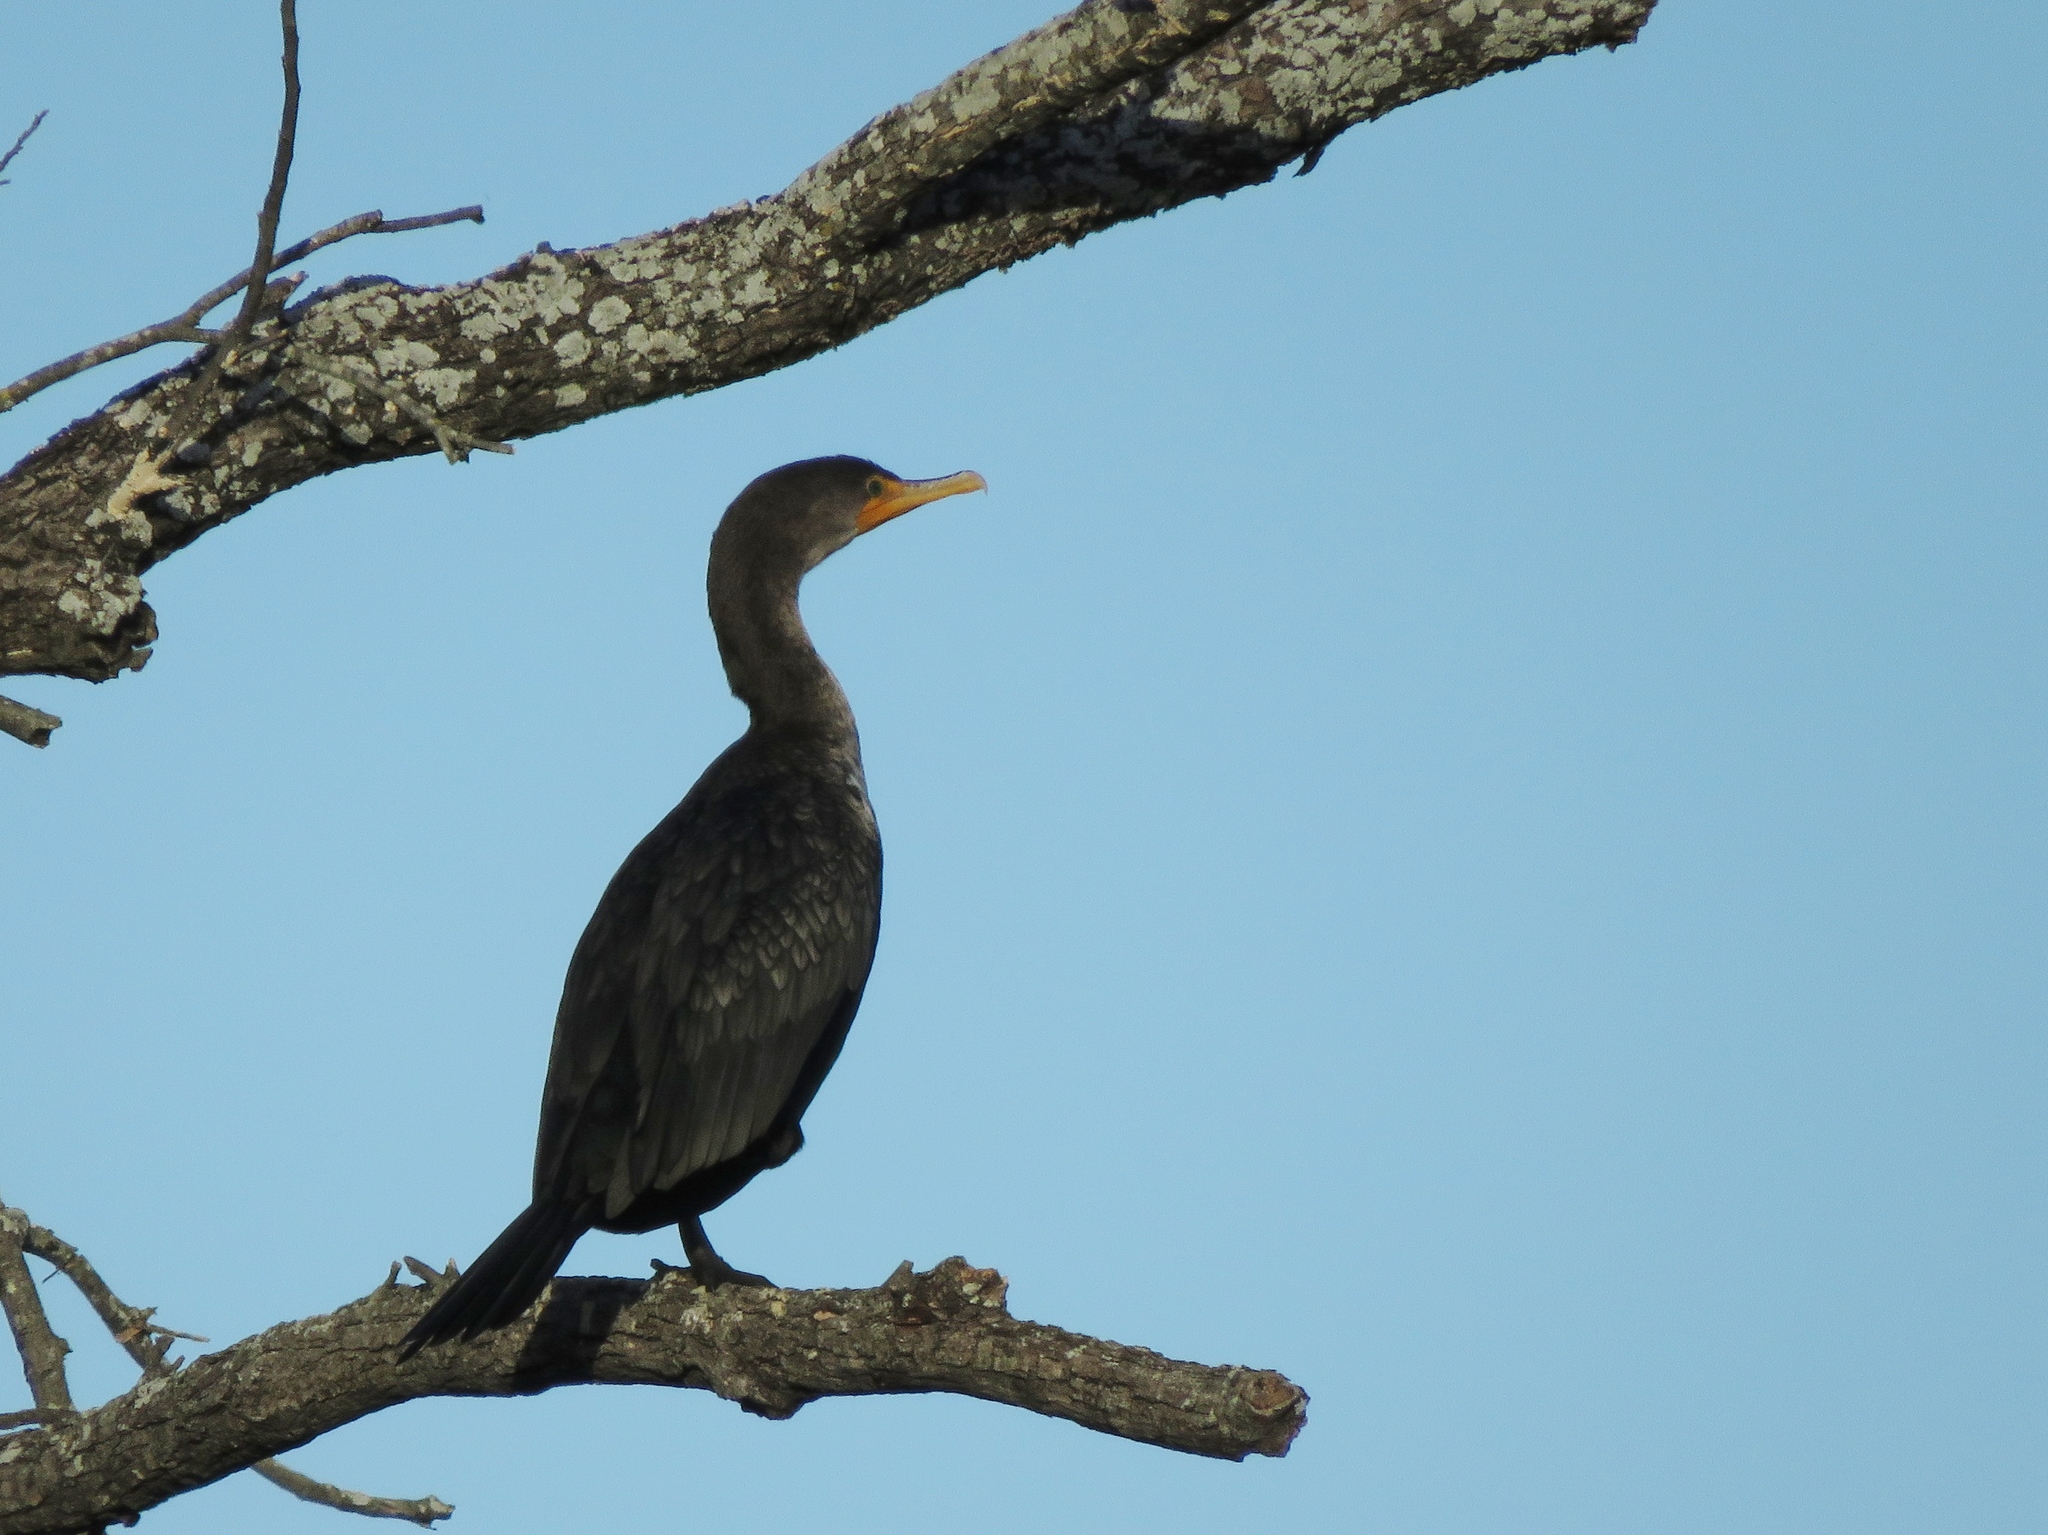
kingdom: Animalia
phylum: Chordata
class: Aves
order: Suliformes
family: Phalacrocoracidae
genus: Phalacrocorax
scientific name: Phalacrocorax auritus
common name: Double-crested cormorant
